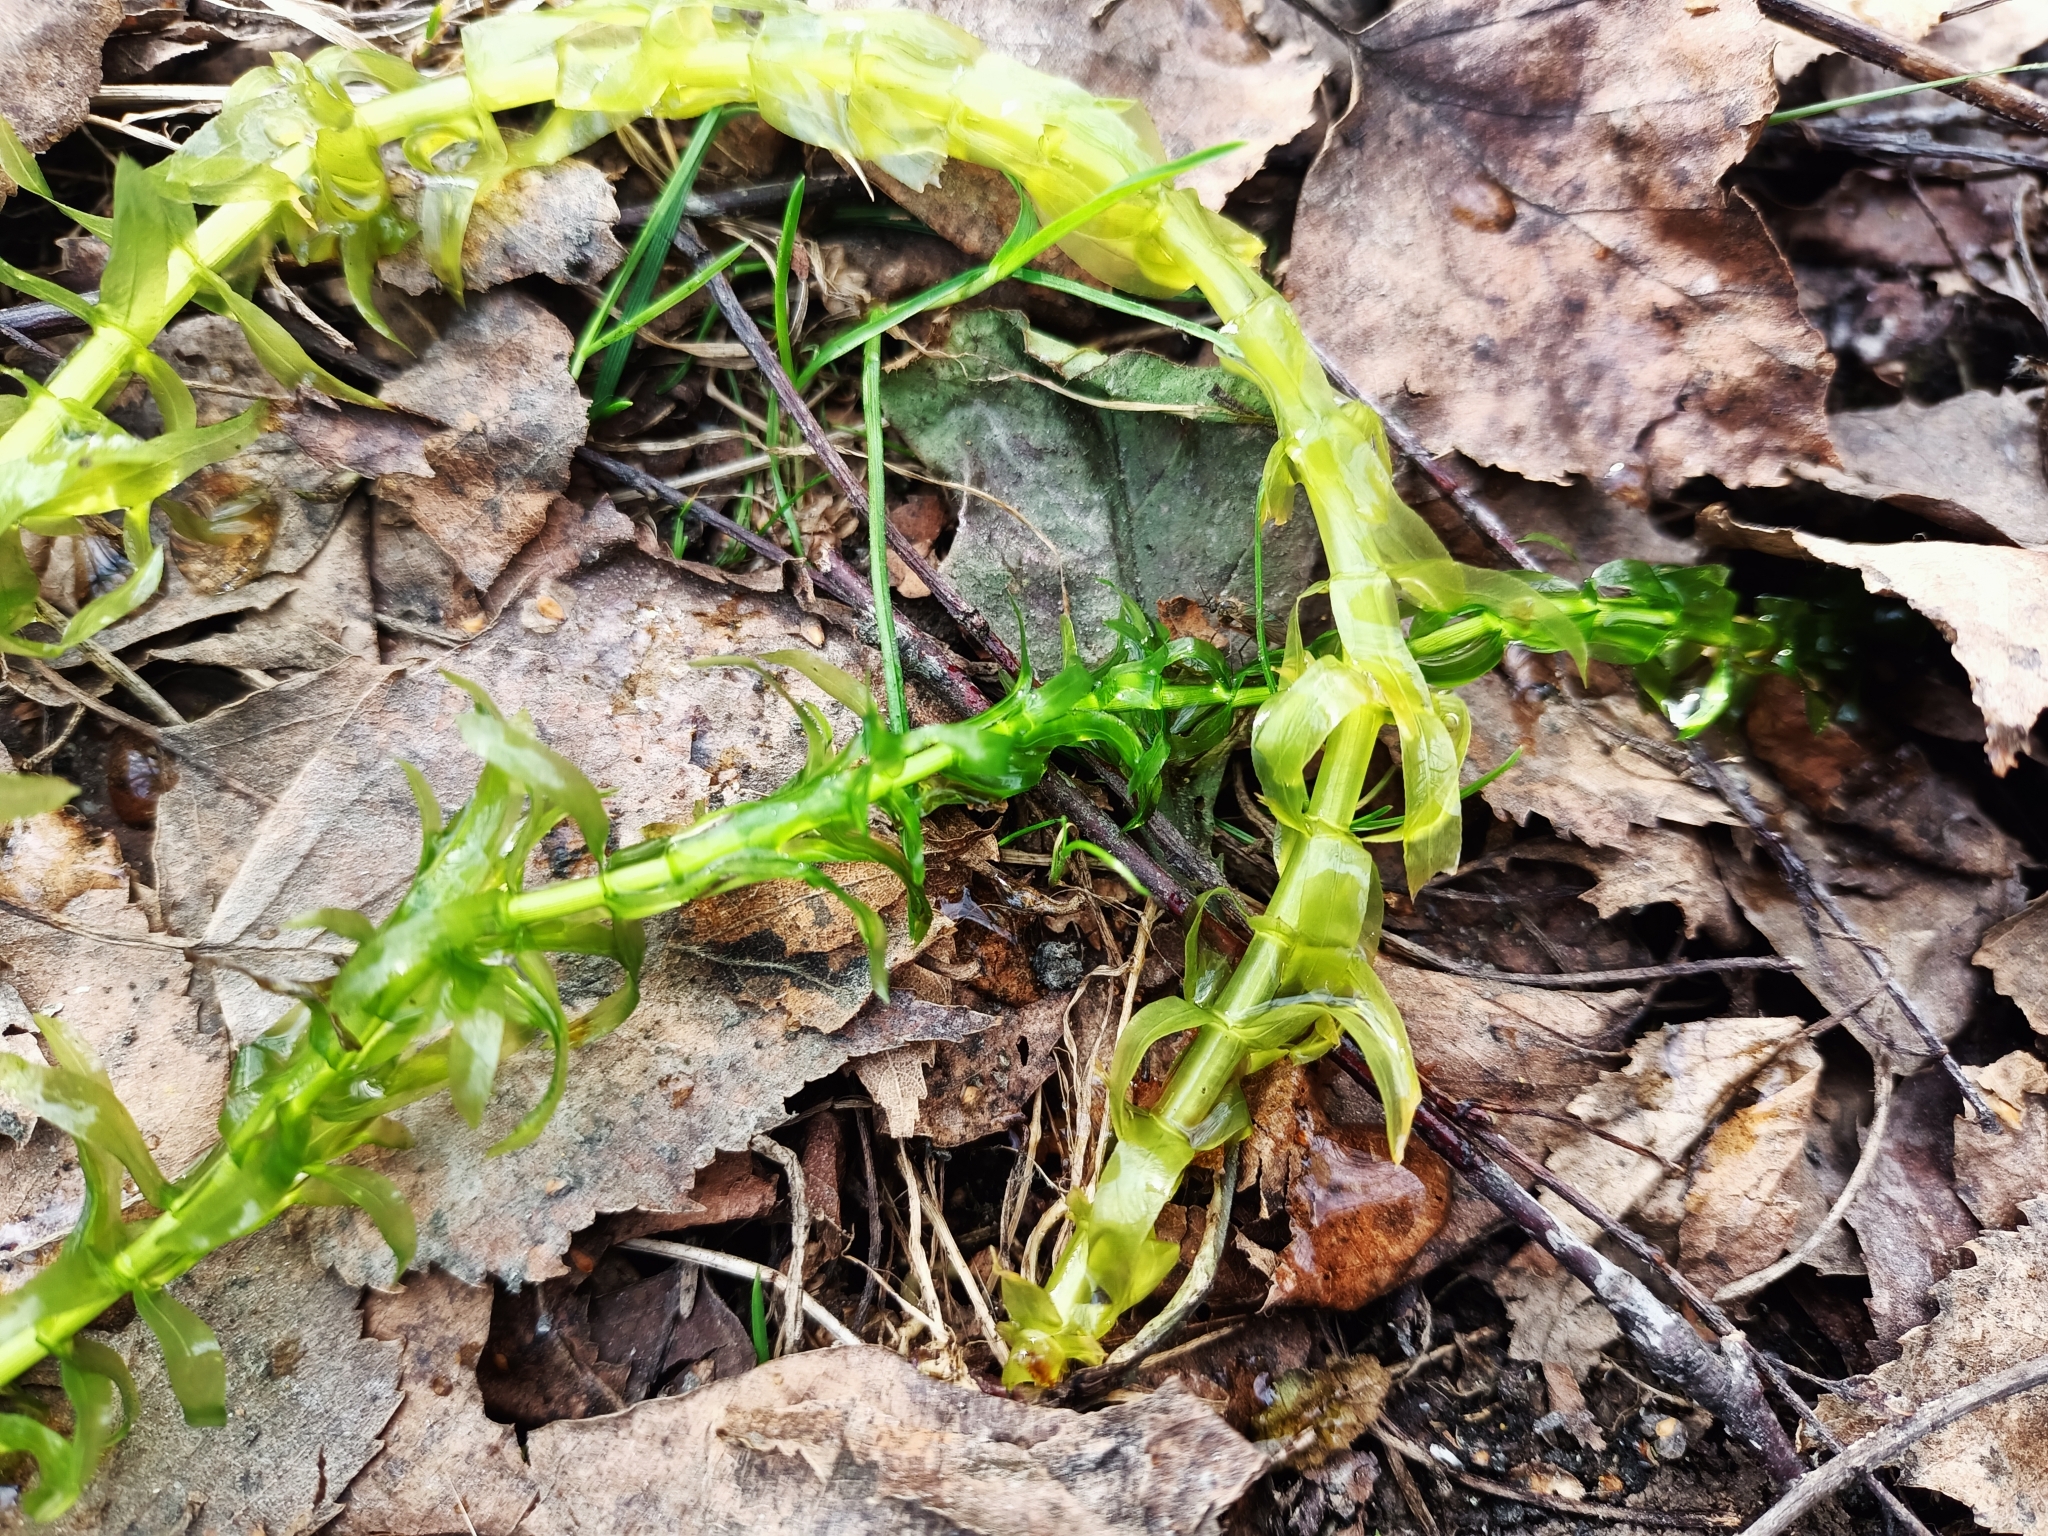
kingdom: Plantae
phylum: Tracheophyta
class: Liliopsida
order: Alismatales
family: Hydrocharitaceae
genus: Elodea
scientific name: Elodea canadensis
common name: Canadian waterweed
